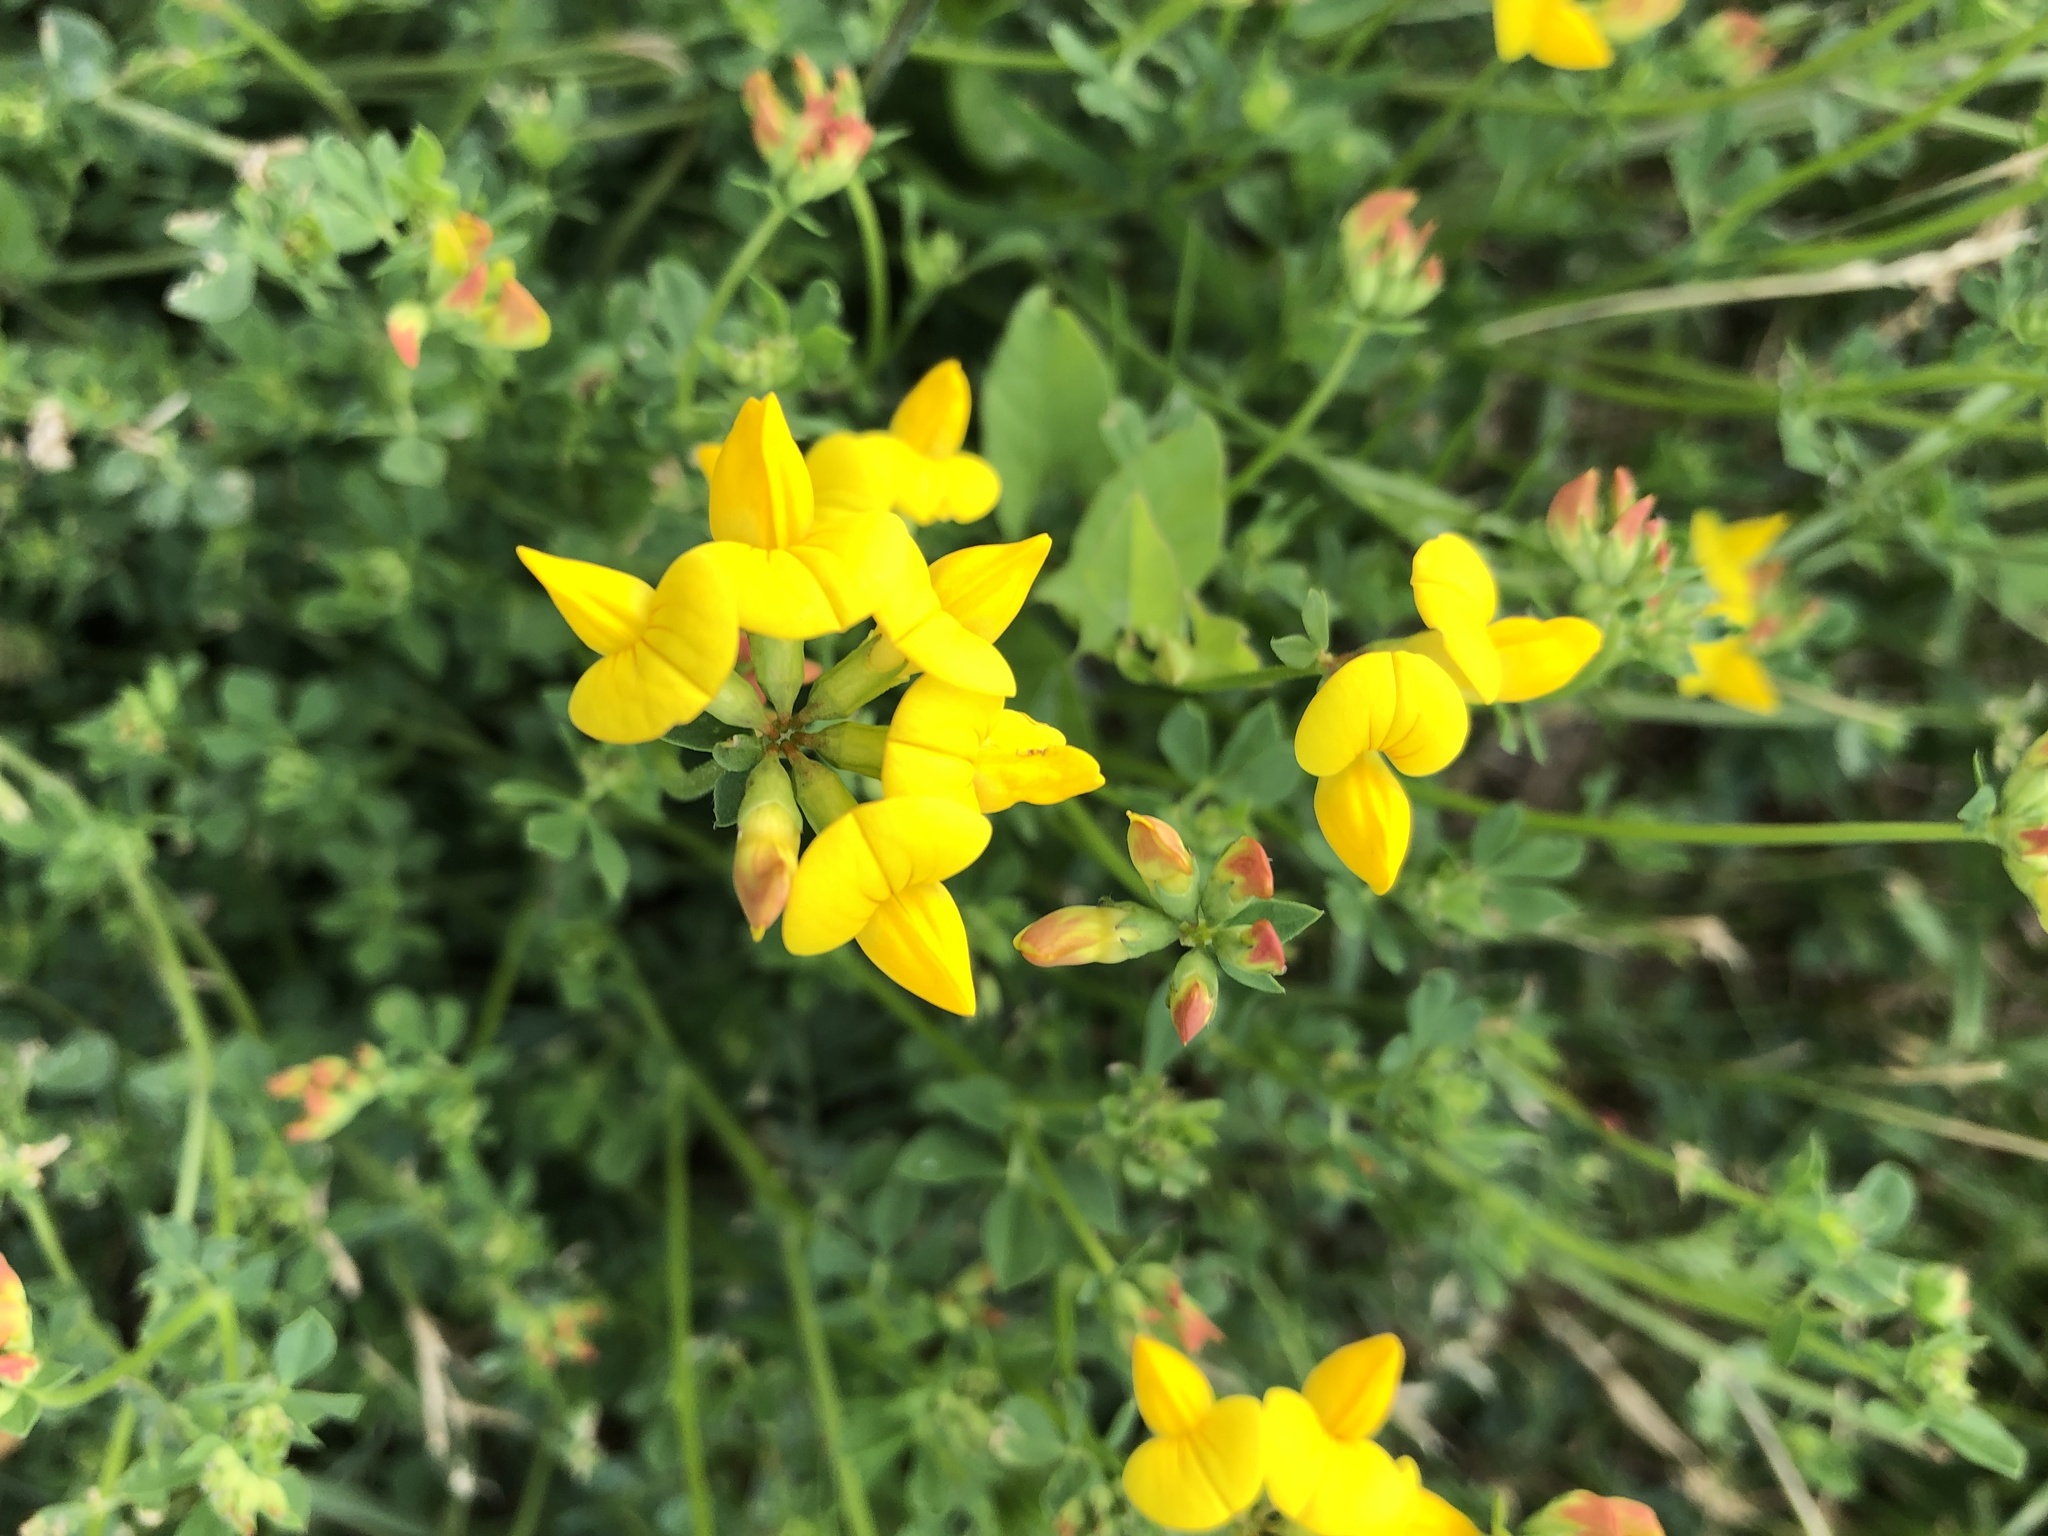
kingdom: Plantae
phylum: Tracheophyta
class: Magnoliopsida
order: Fabales
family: Fabaceae
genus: Lotus
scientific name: Lotus corniculatus
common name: Common bird's-foot-trefoil
